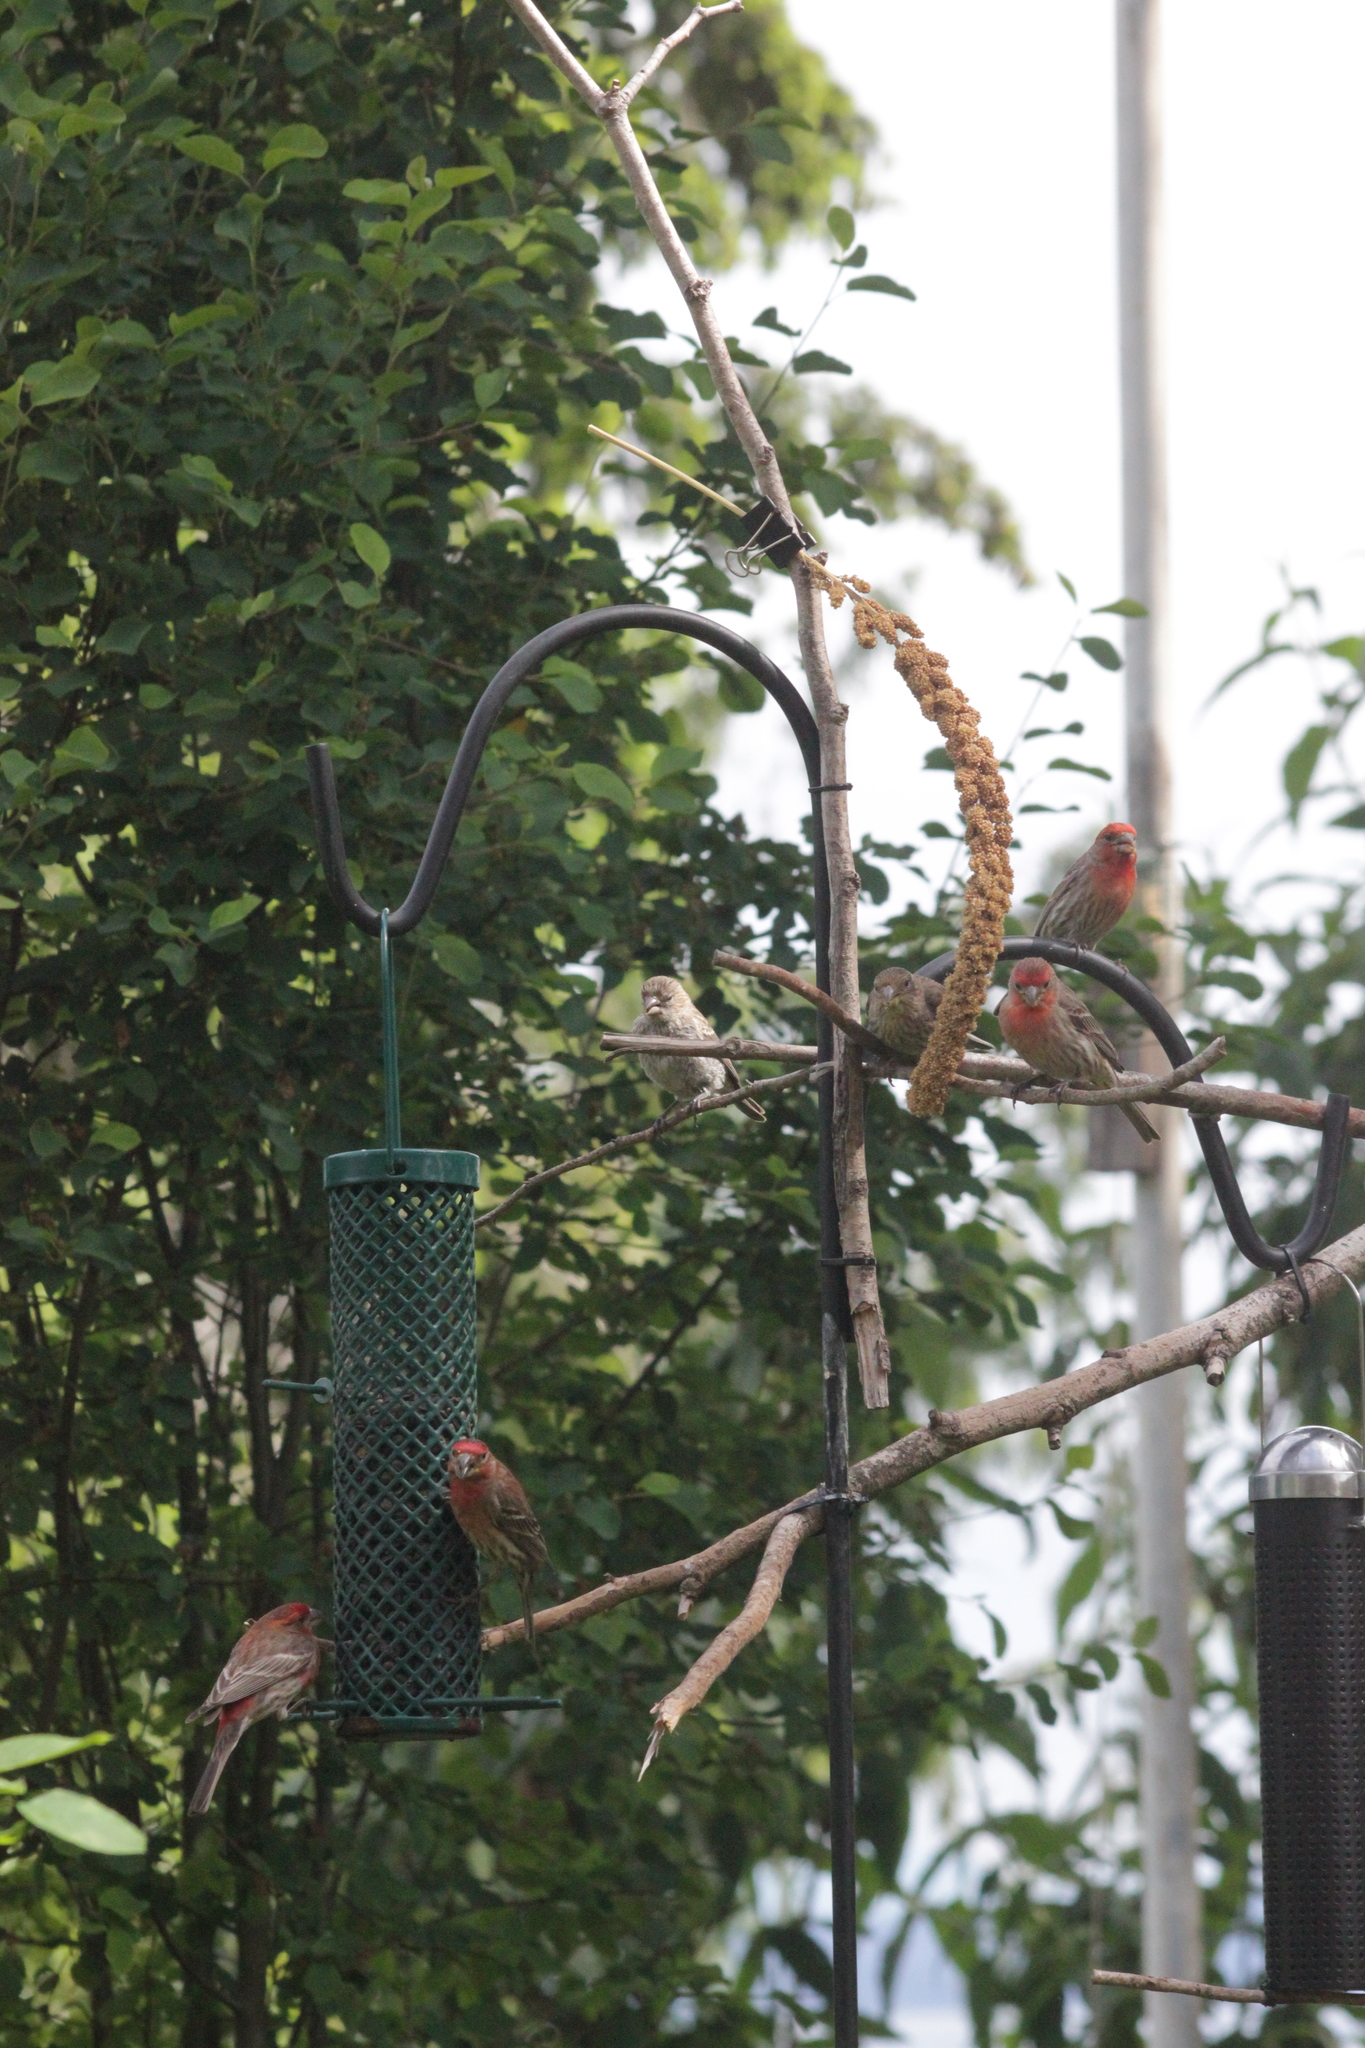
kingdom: Animalia
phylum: Chordata
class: Aves
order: Passeriformes
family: Fringillidae
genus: Haemorhous
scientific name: Haemorhous mexicanus
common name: House finch
